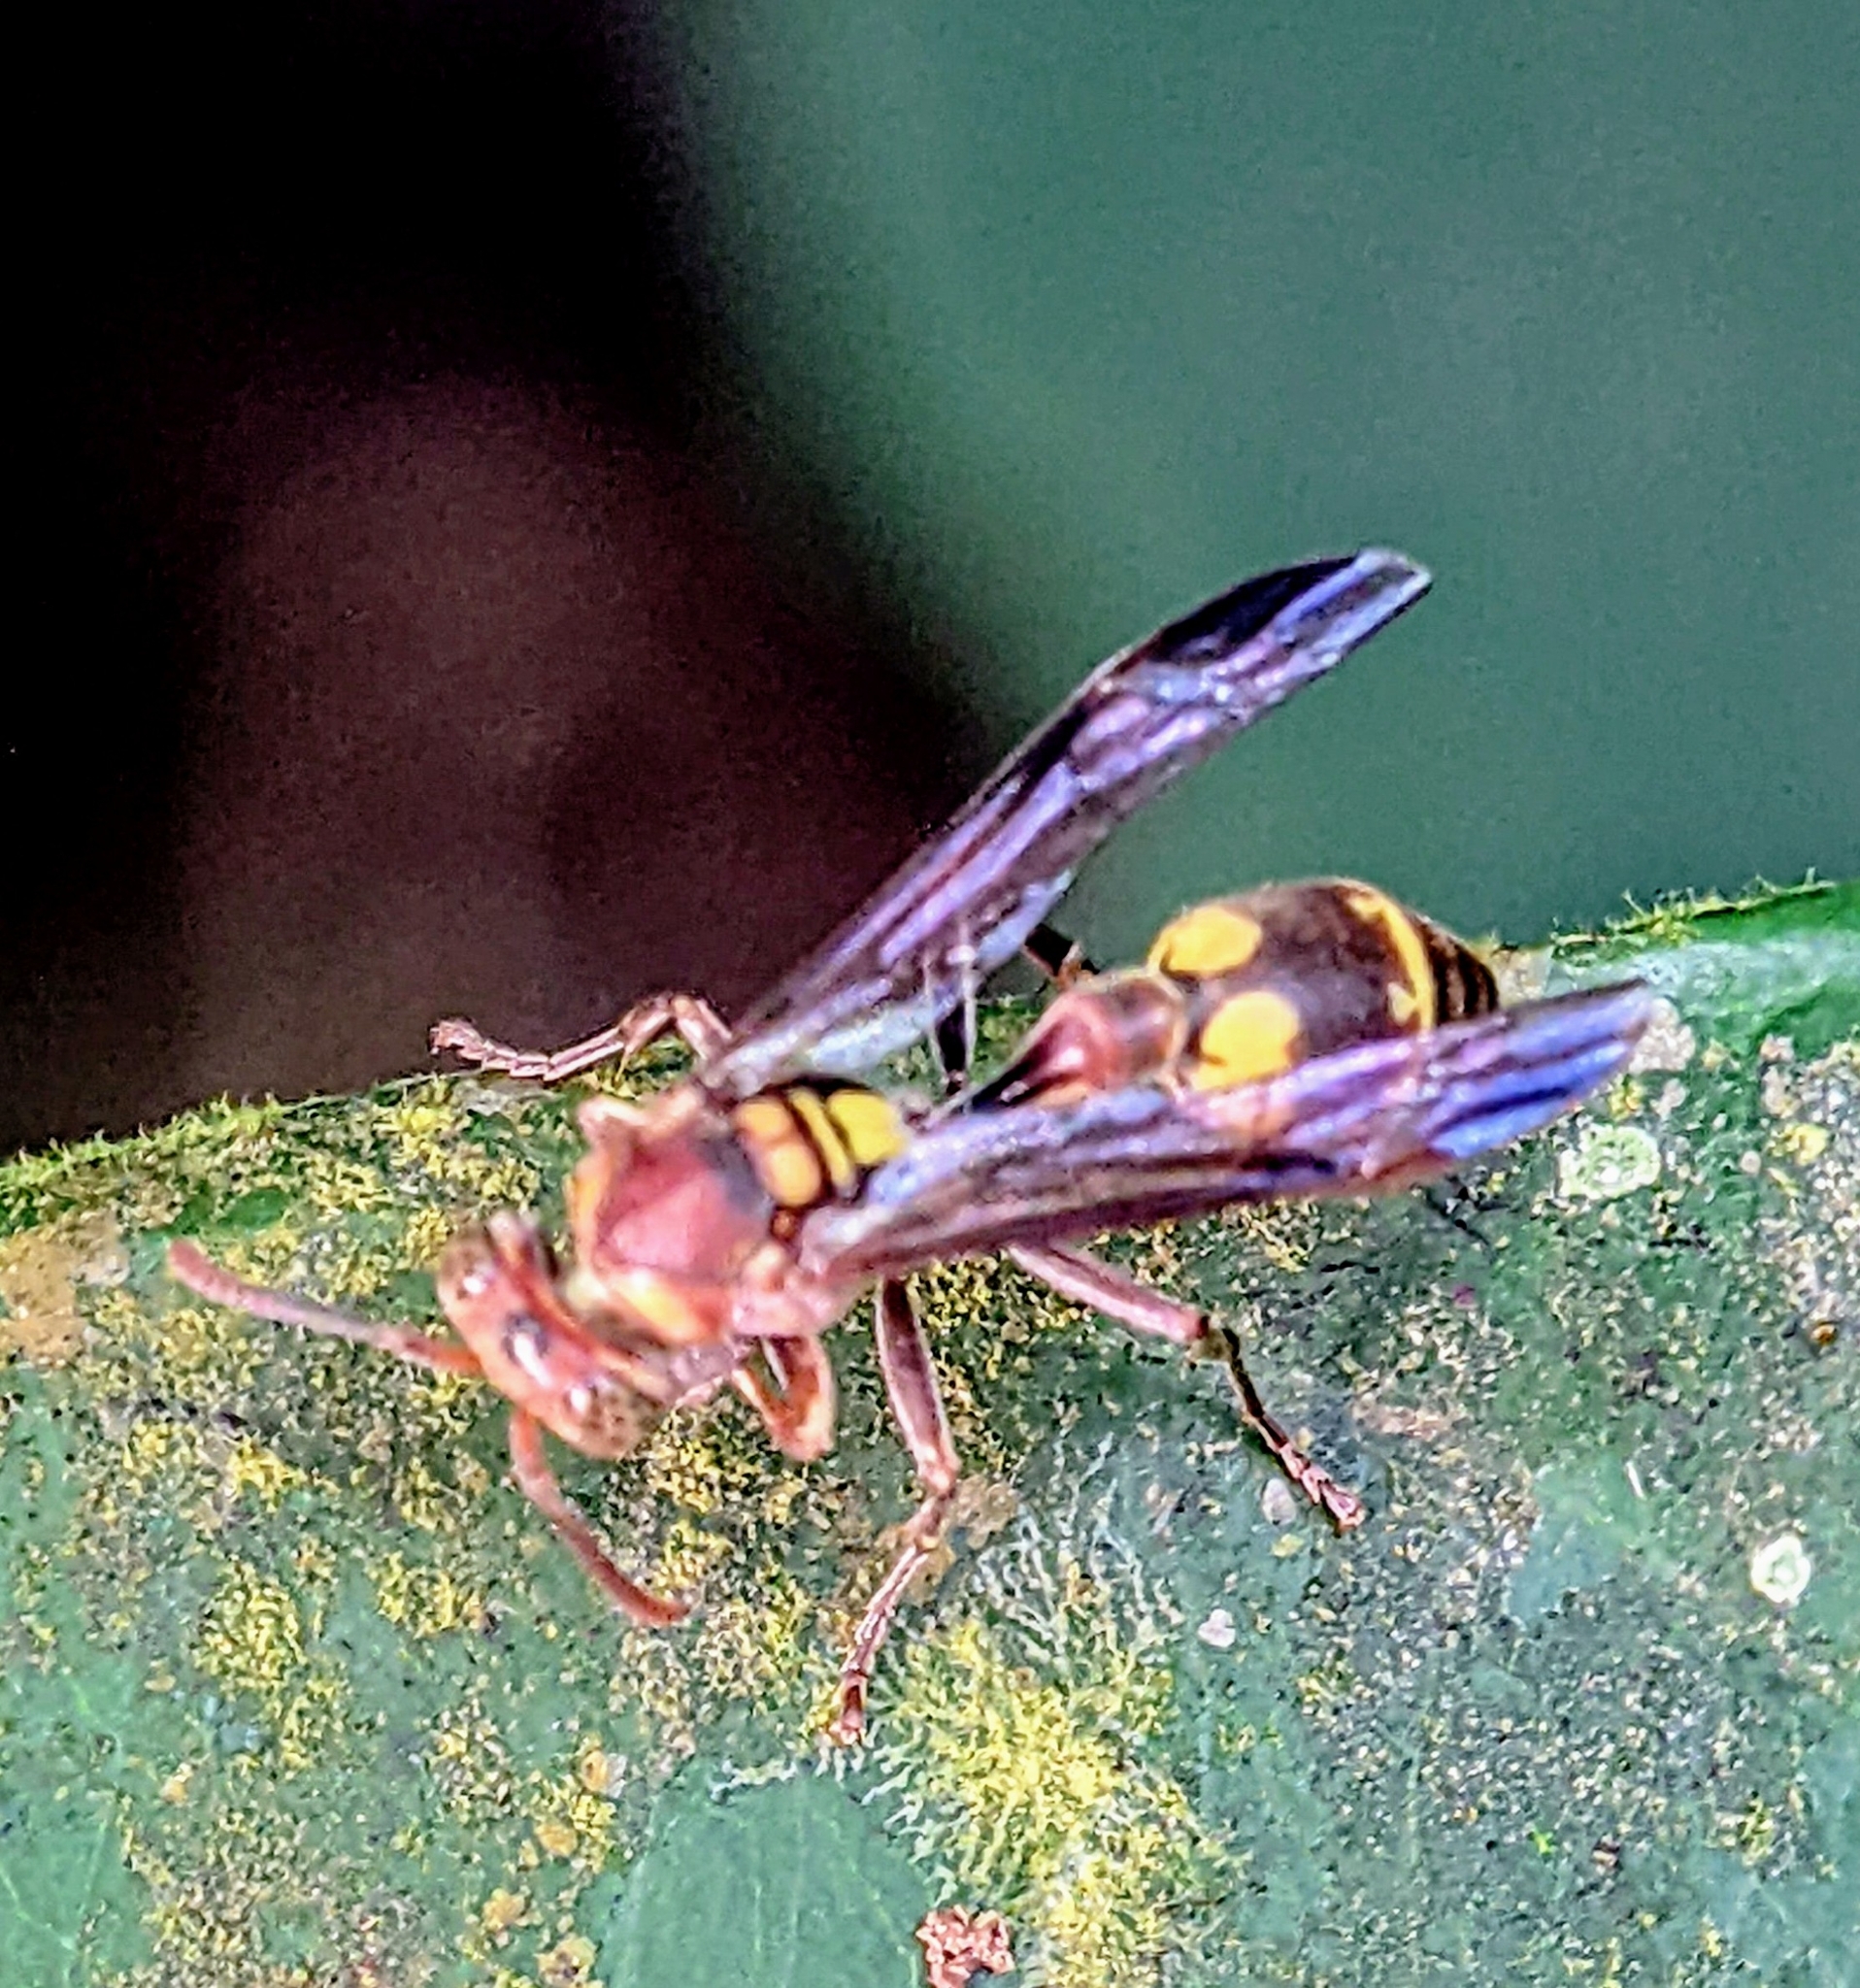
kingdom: Animalia
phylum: Arthropoda
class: Insecta
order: Hymenoptera
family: Vespidae
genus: Ropalidia
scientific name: Ropalidia stigma
